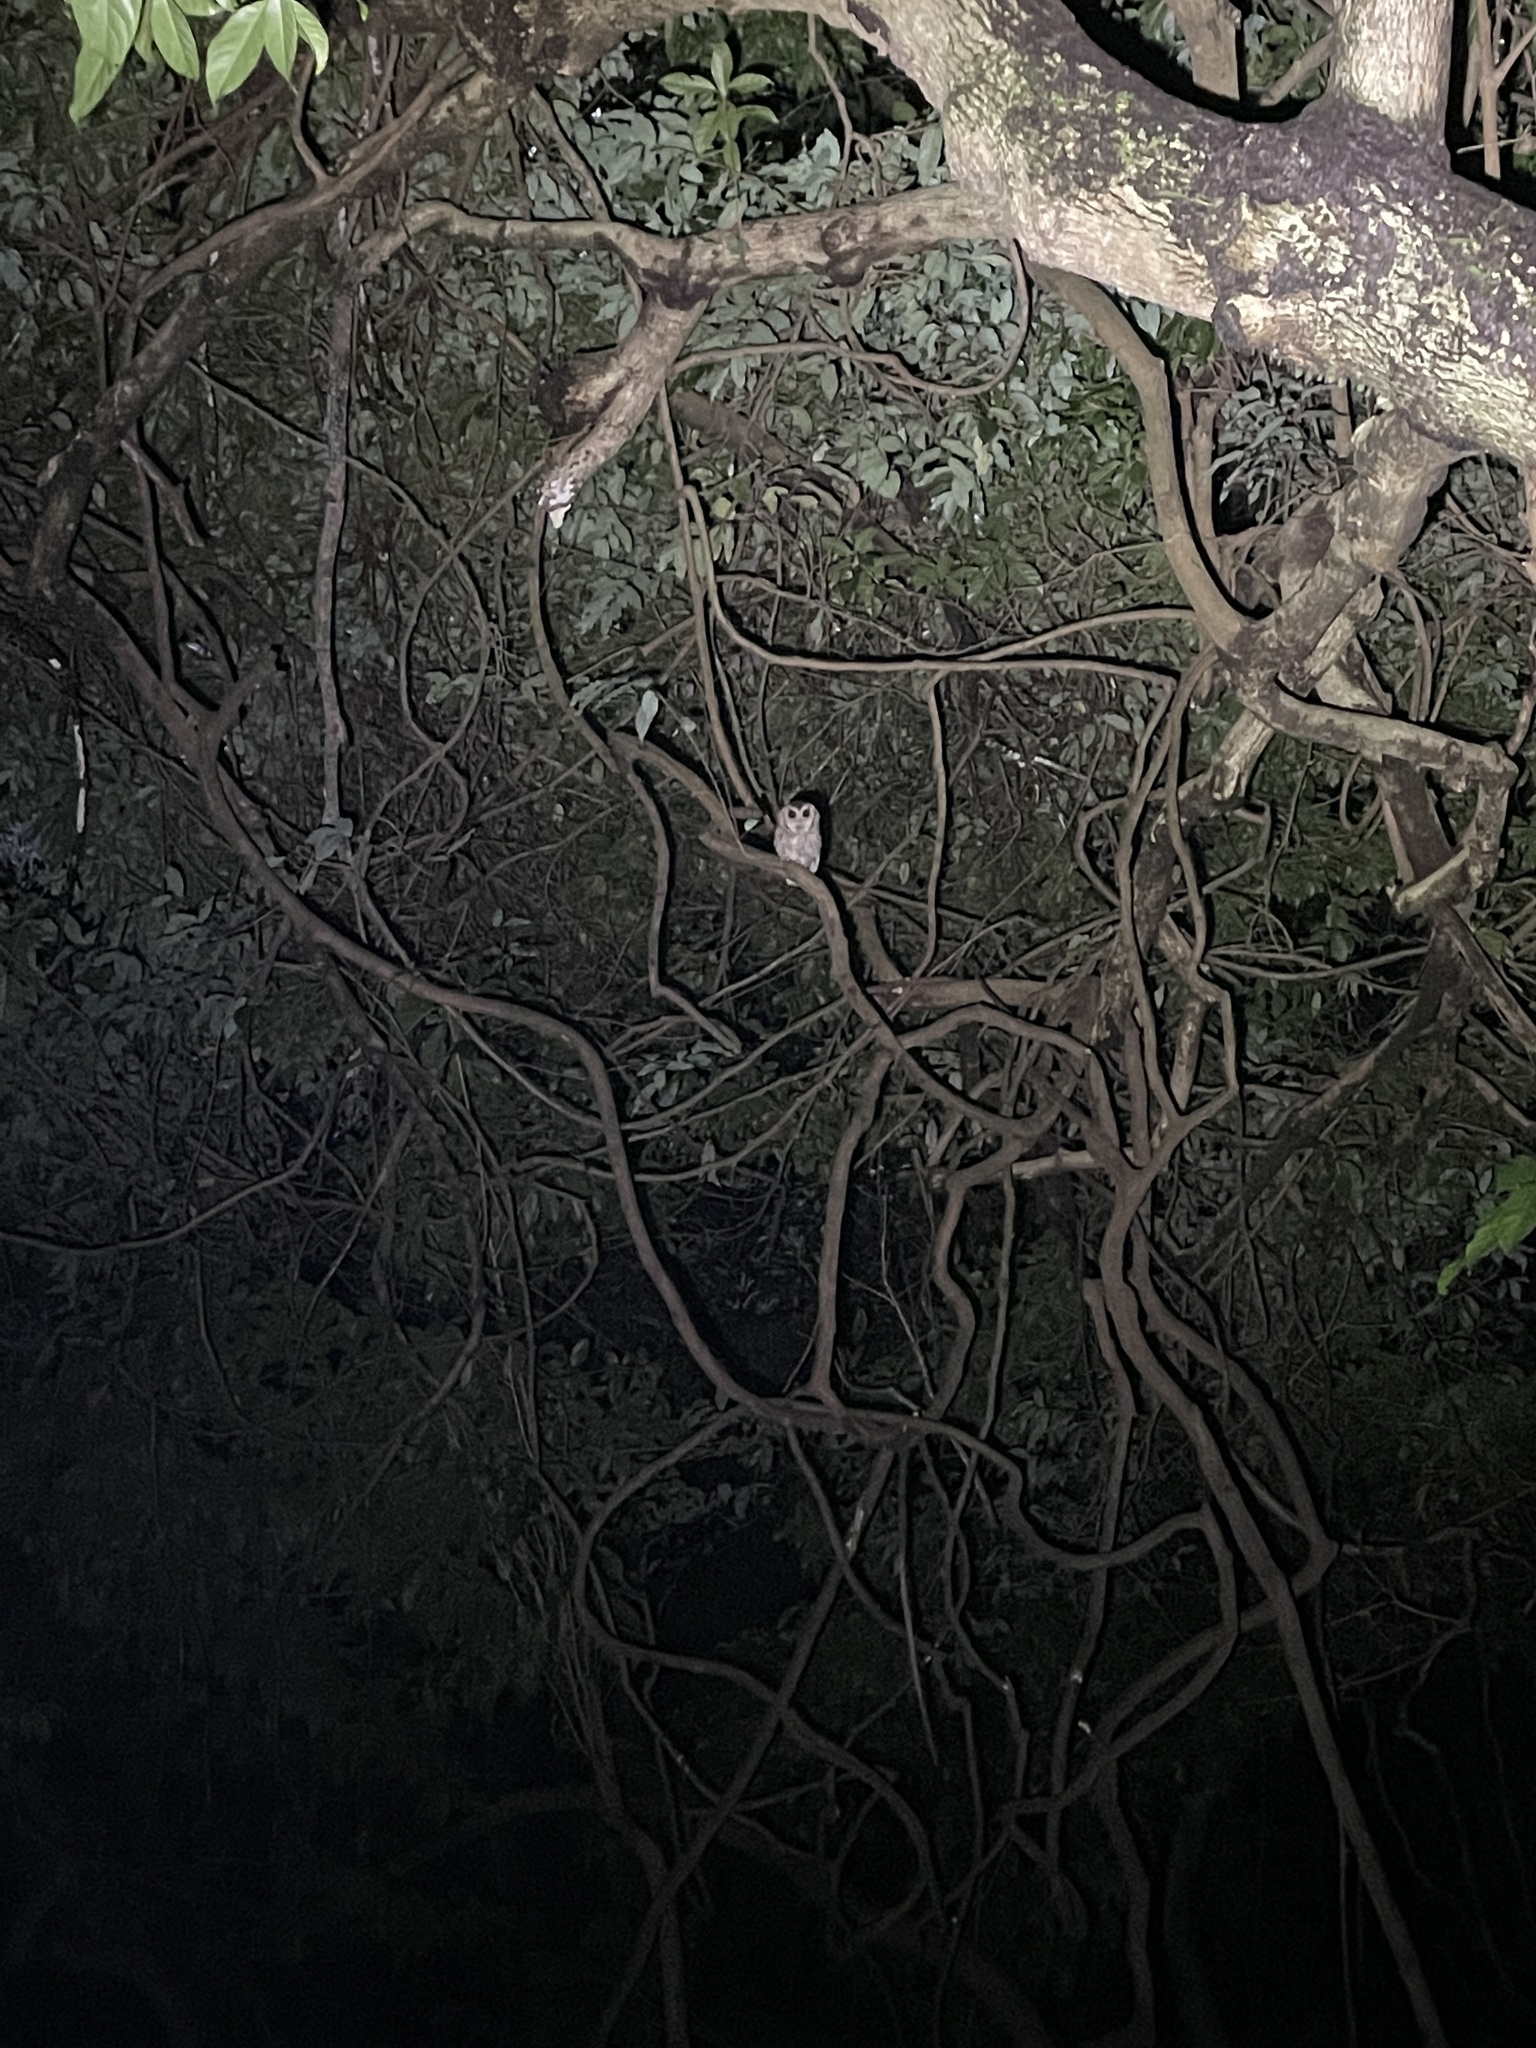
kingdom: Animalia
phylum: Chordata
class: Aves
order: Strigiformes
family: Strigidae
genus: Otus
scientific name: Otus lettia
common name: Collared scops owl
